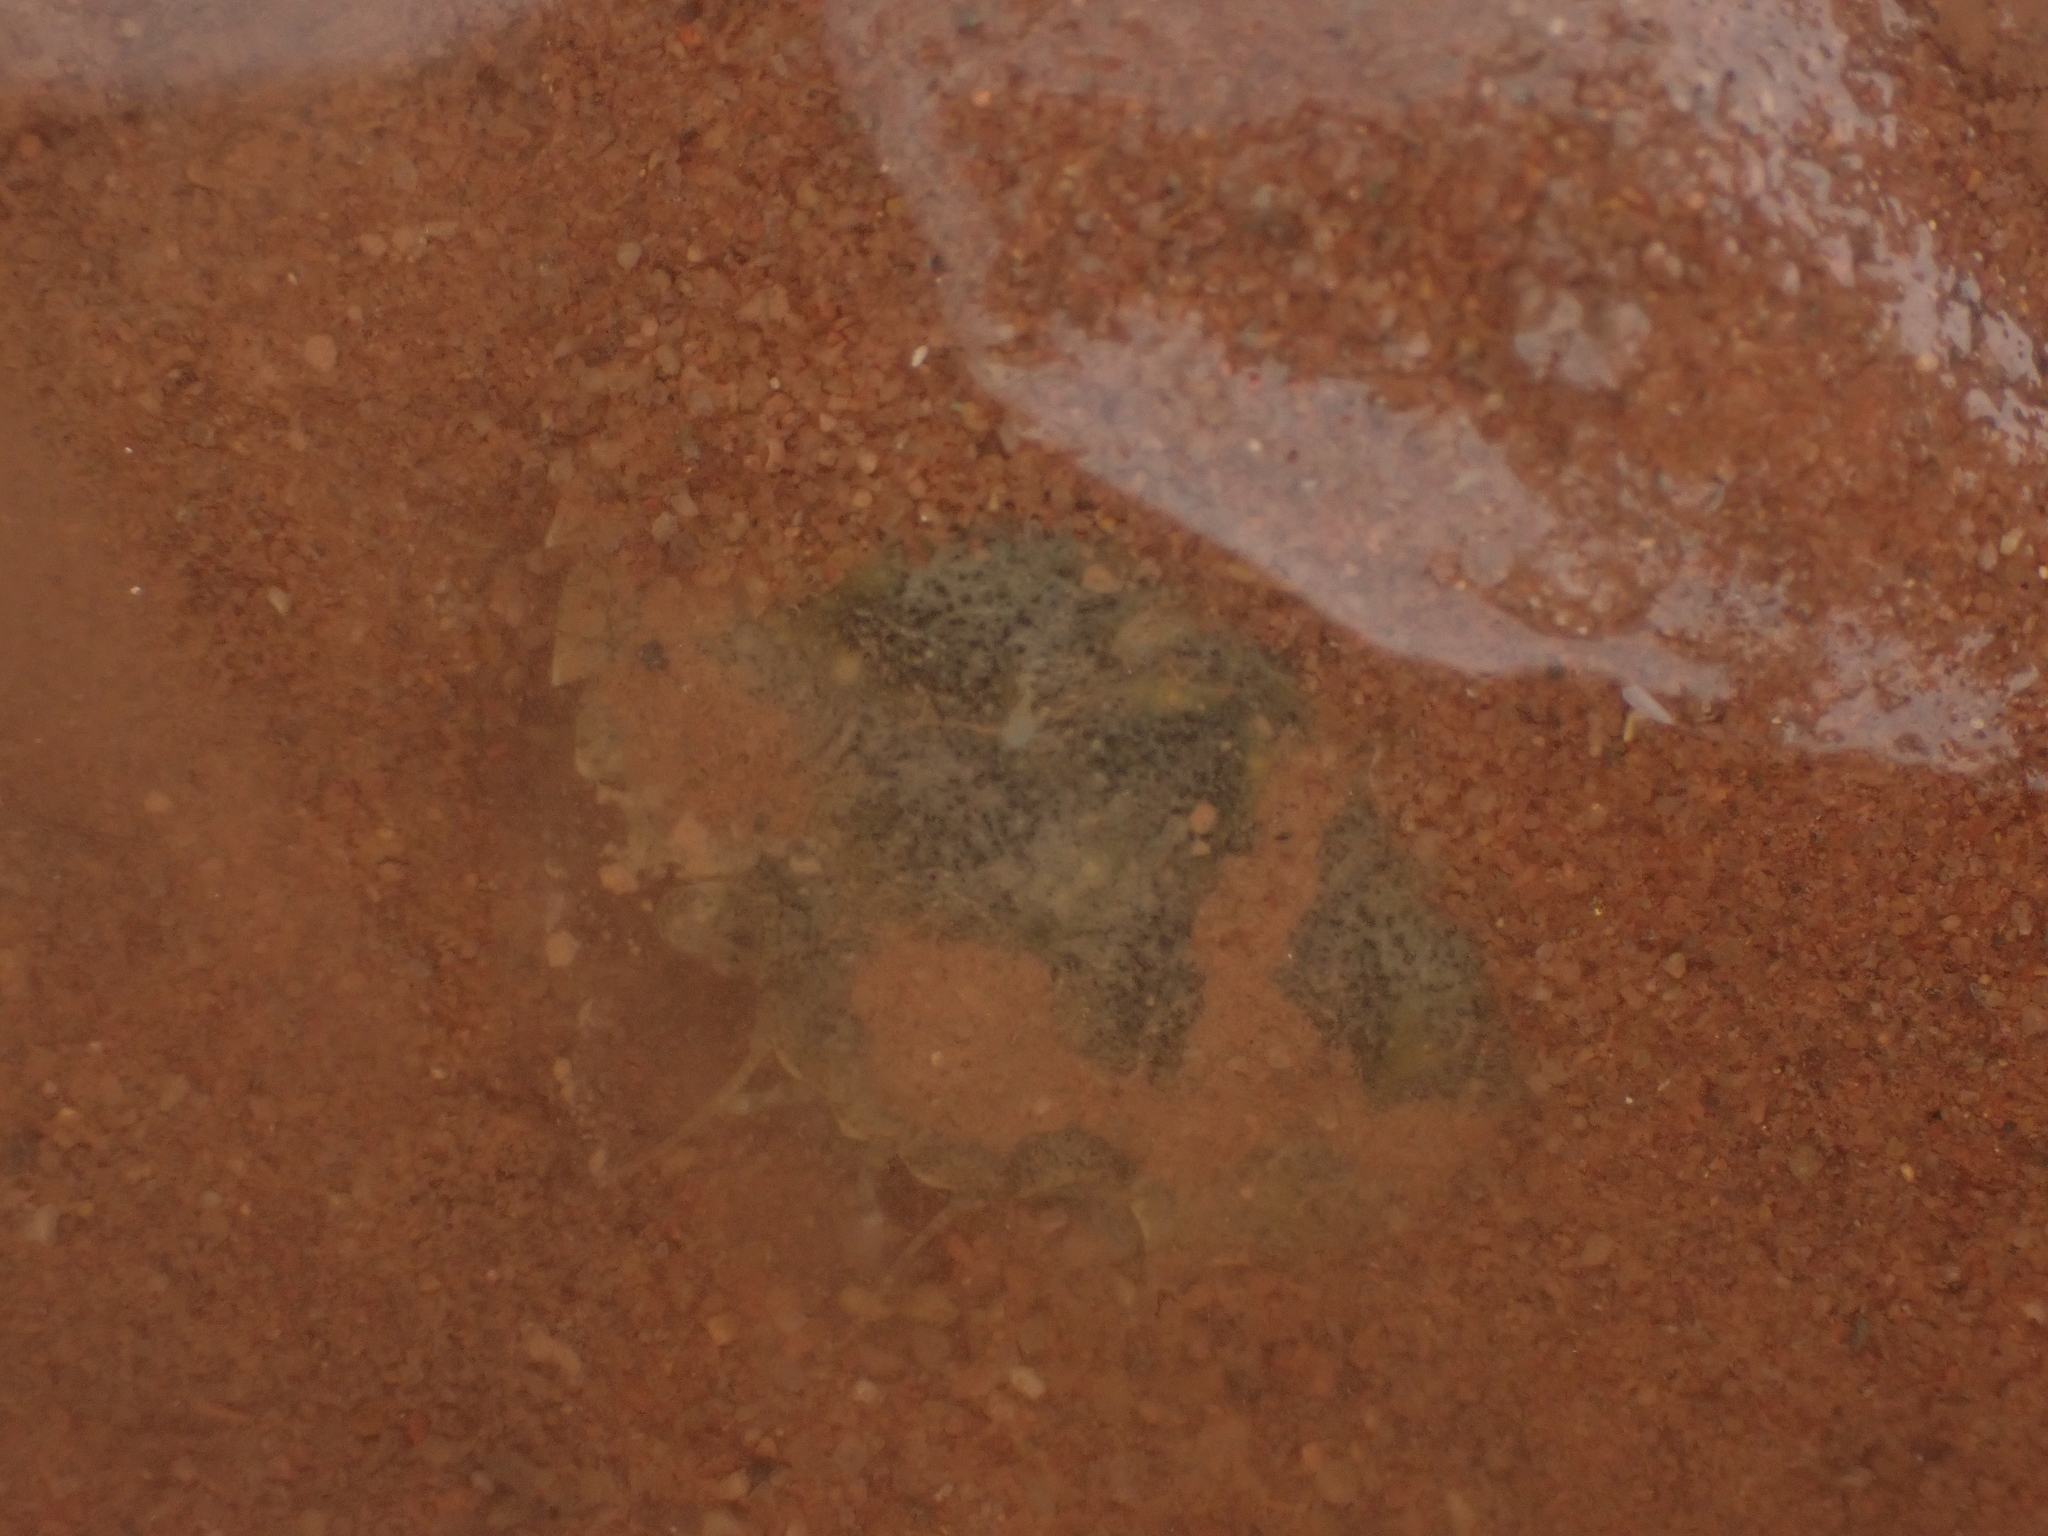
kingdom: Animalia
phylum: Arthropoda
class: Malacostraca
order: Decapoda
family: Carcinidae
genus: Carcinus
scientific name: Carcinus maenas
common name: European green crab
